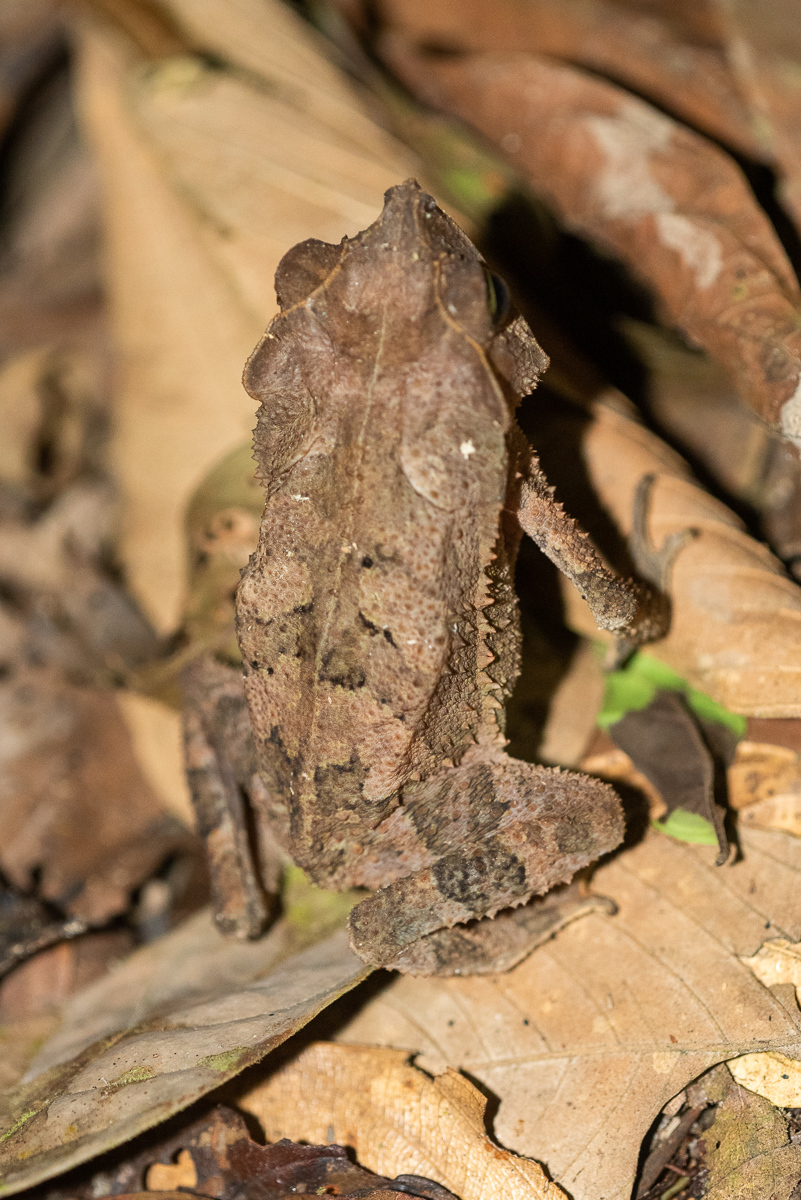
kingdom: Animalia
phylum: Chordata
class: Amphibia
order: Anura
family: Bufonidae
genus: Rhinella
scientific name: Rhinella margaritifera
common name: Mitred toad
